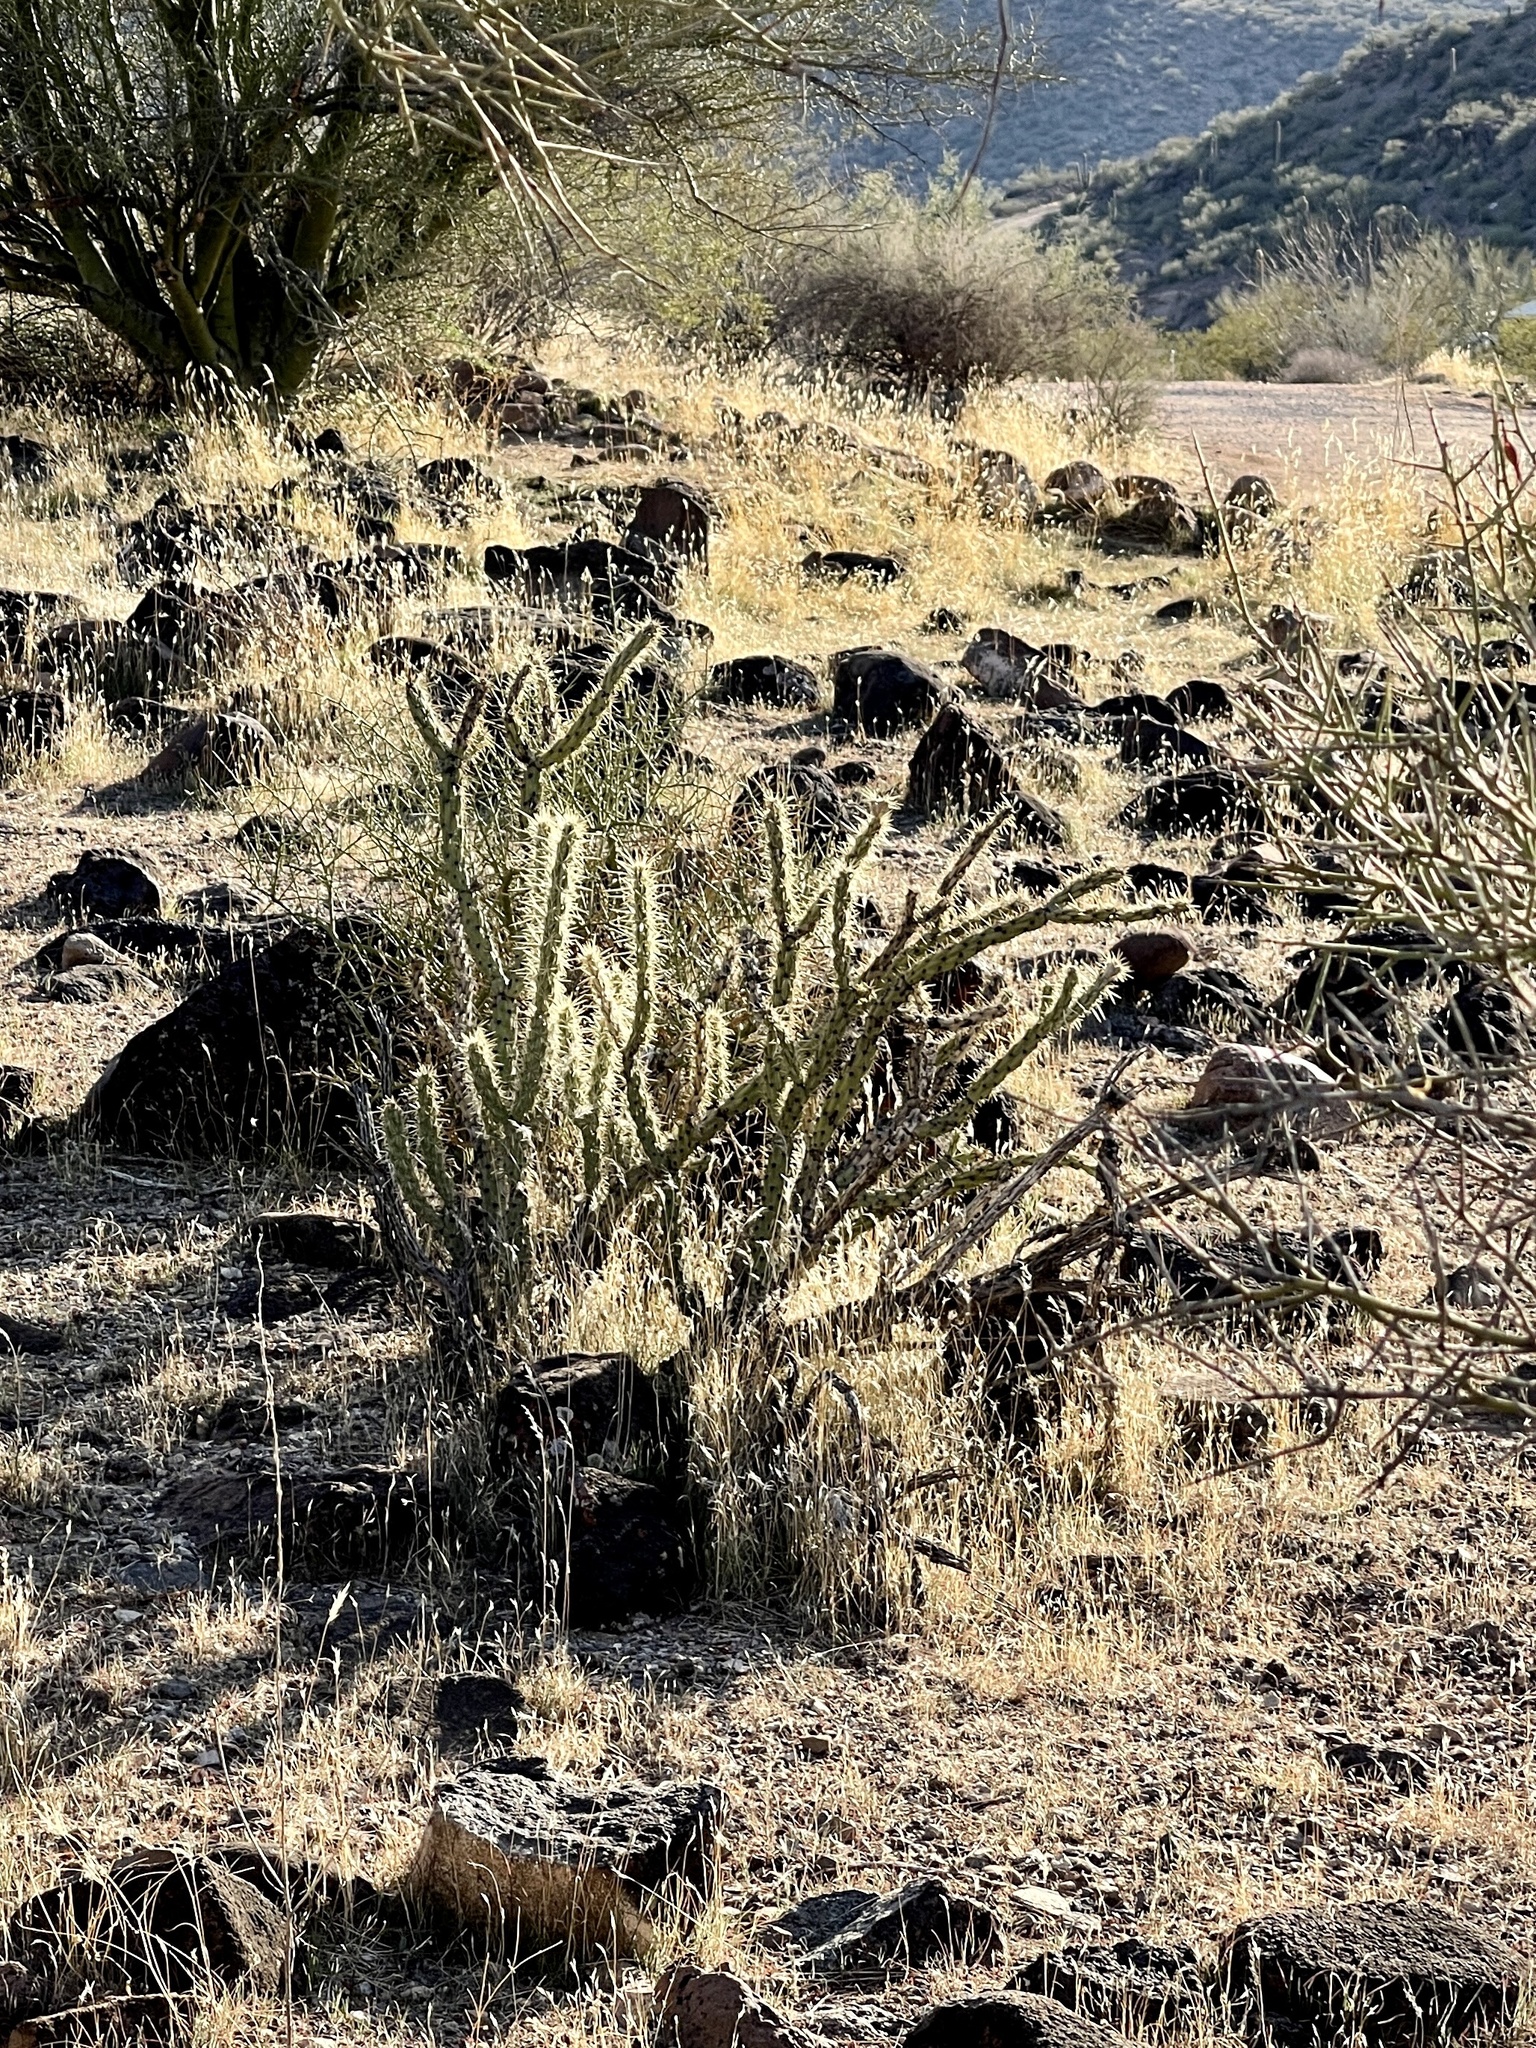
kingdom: Plantae
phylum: Tracheophyta
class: Magnoliopsida
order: Caryophyllales
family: Cactaceae
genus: Cylindropuntia
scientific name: Cylindropuntia acanthocarpa
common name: Buckhorn cholla
